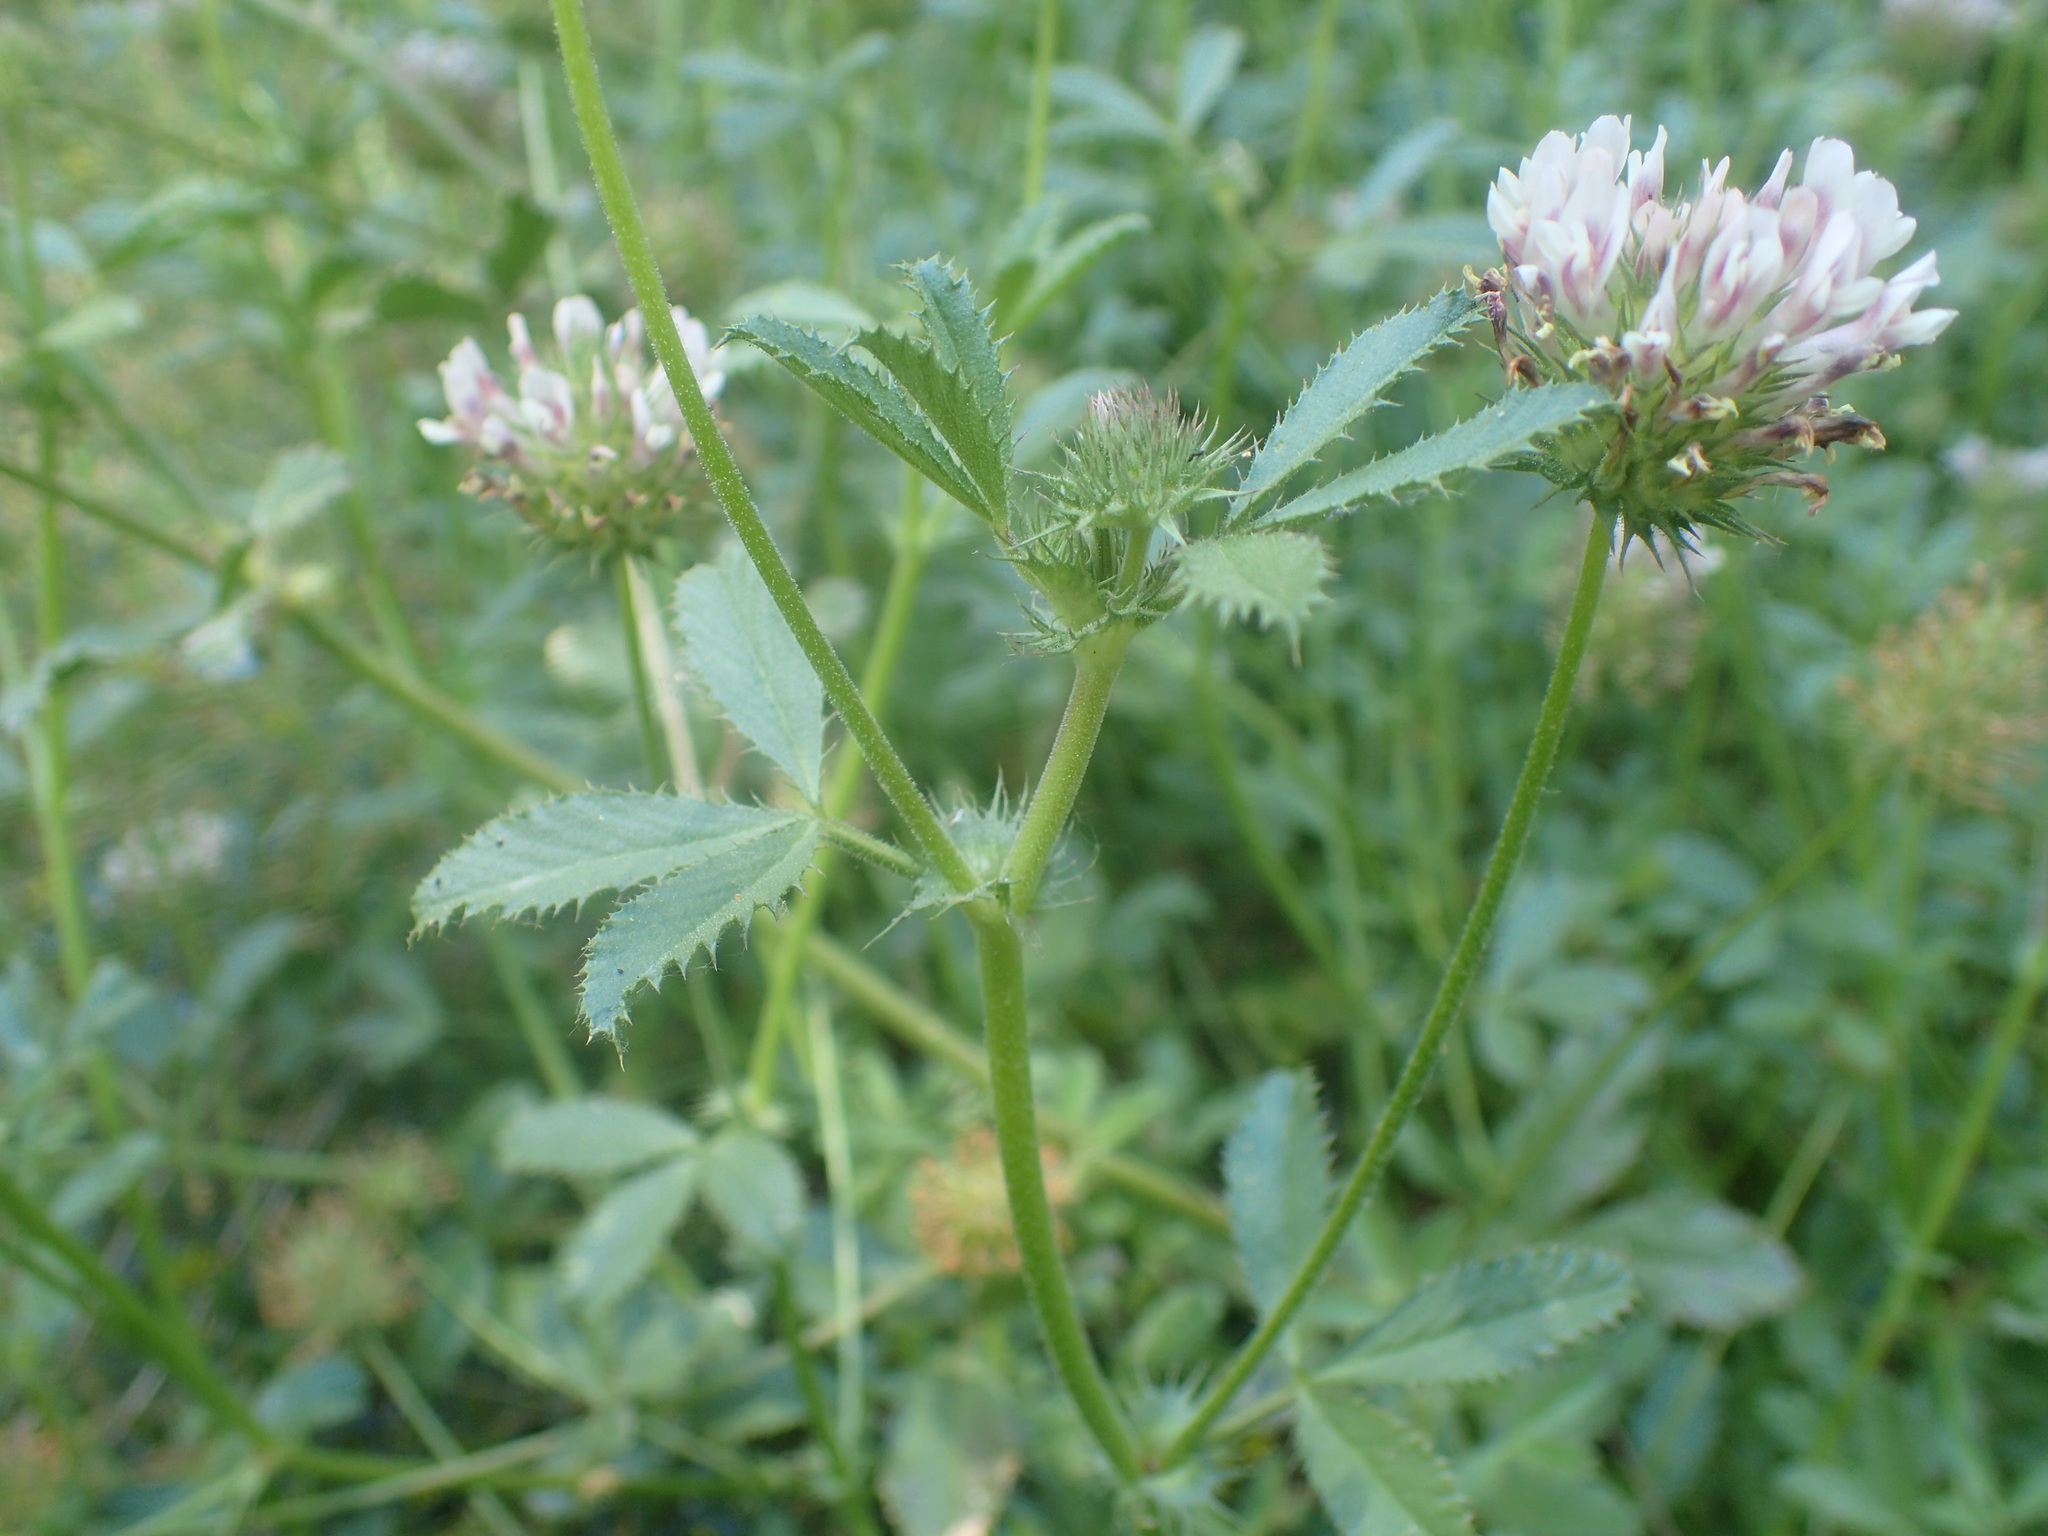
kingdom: Plantae
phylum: Tracheophyta
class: Magnoliopsida
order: Fabales
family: Fabaceae
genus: Trifolium
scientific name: Trifolium obtusiflorum
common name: Clammy clover
